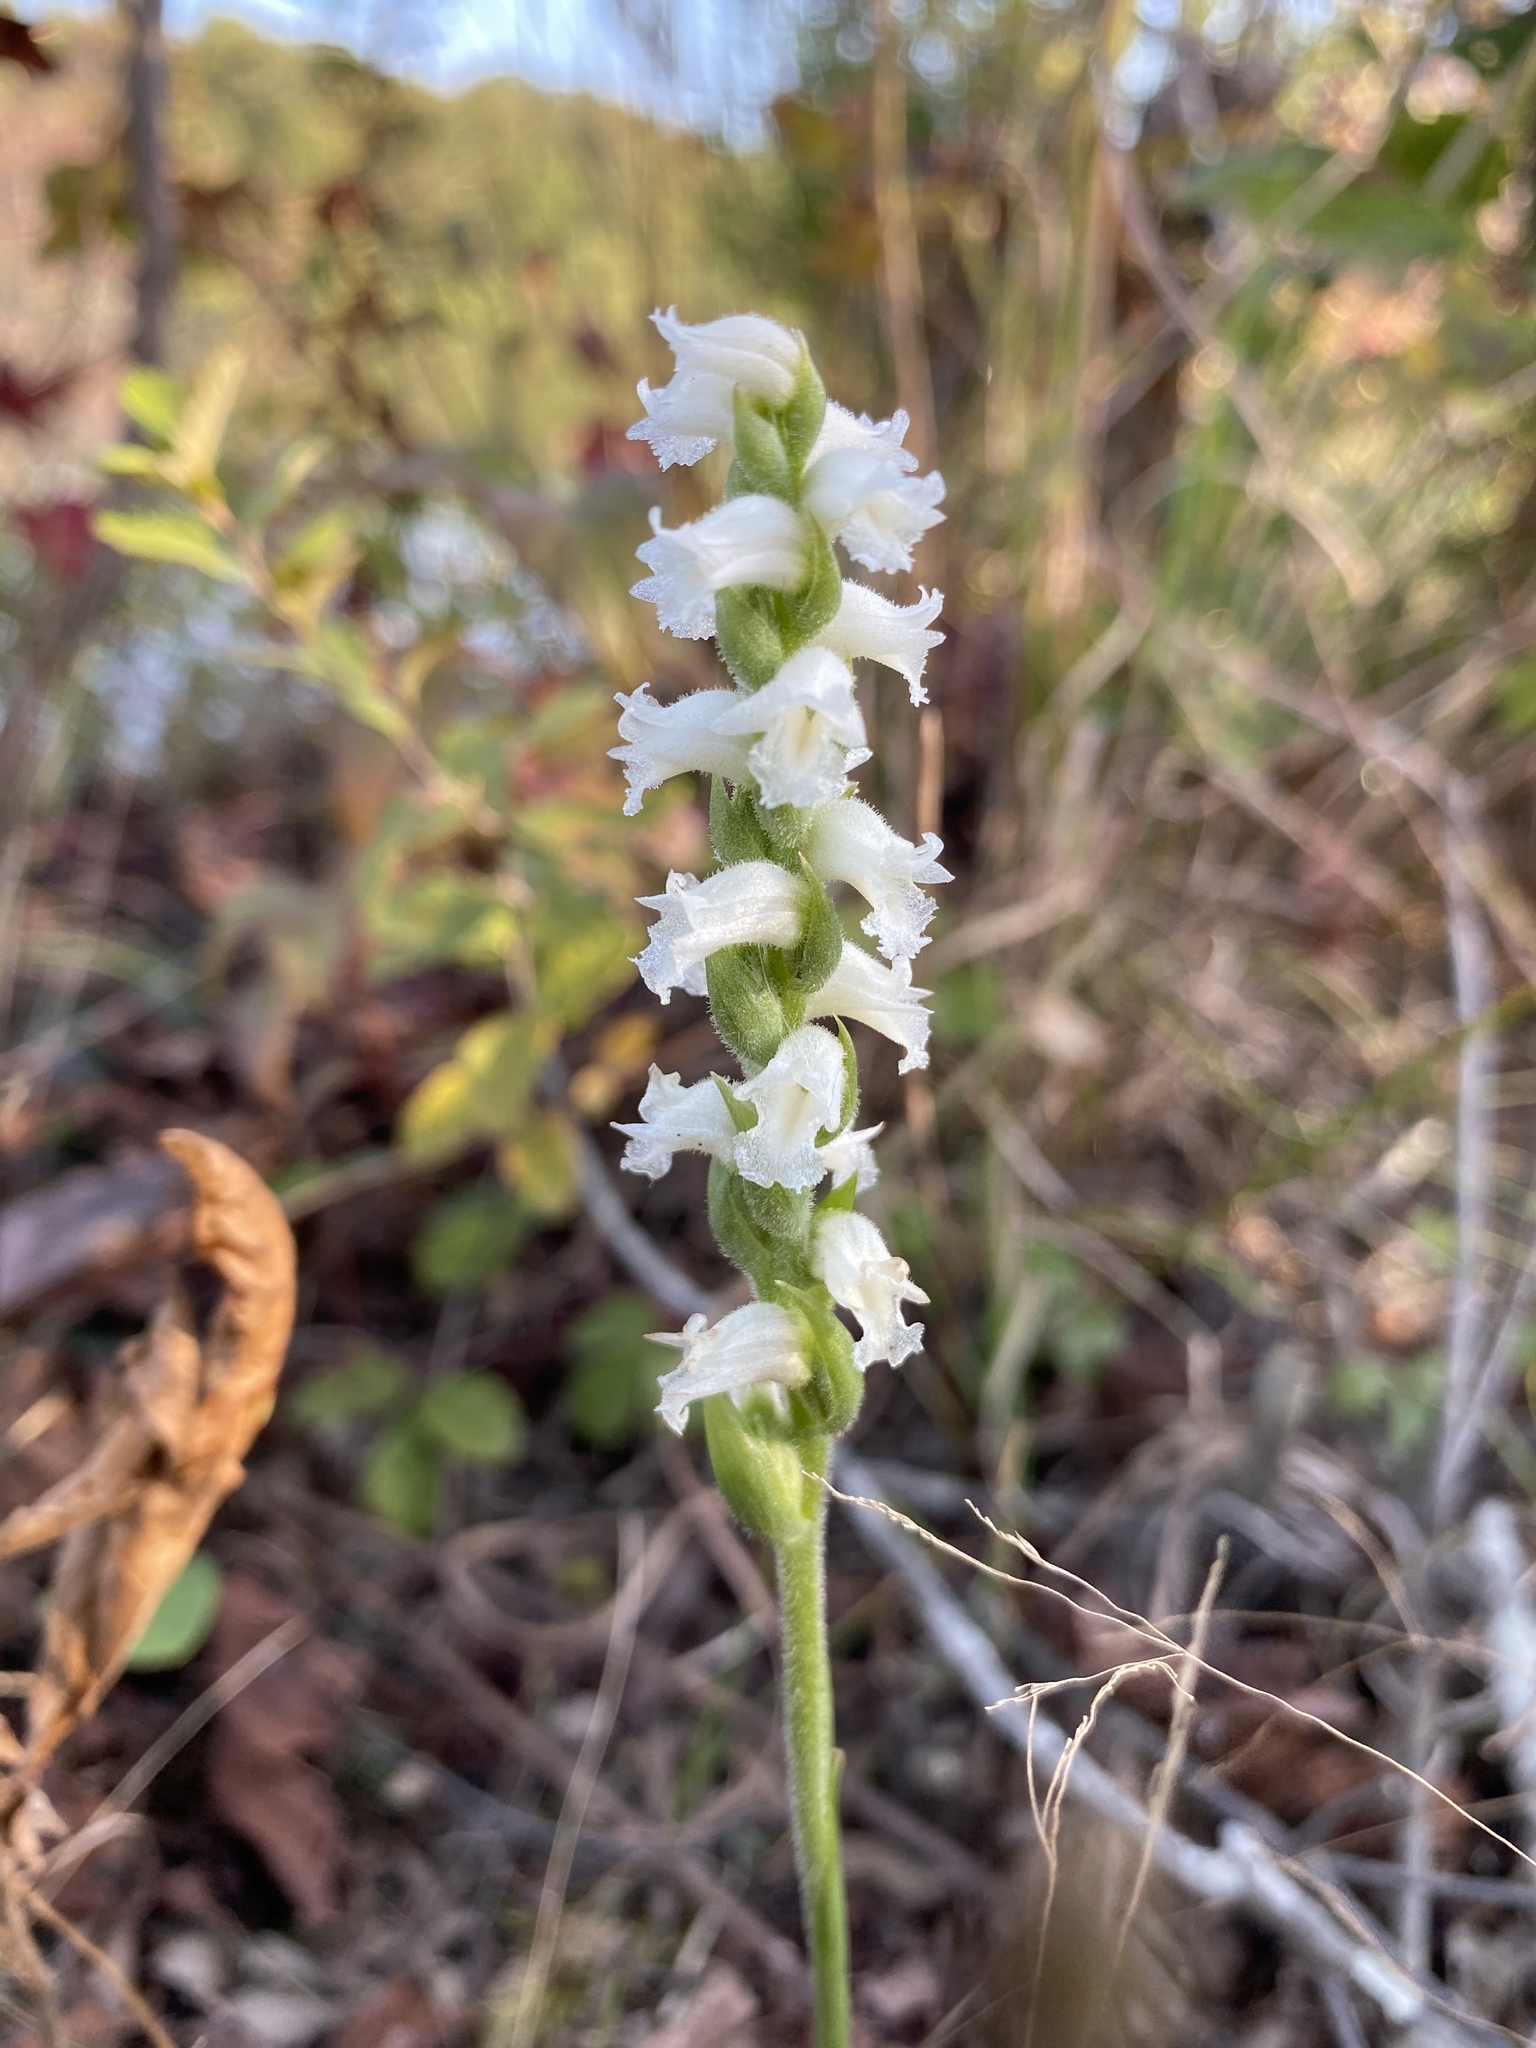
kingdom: Plantae
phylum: Tracheophyta
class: Liliopsida
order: Asparagales
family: Orchidaceae
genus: Spiranthes
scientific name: Spiranthes ochroleuca
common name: Yellow ladies'-tresses
